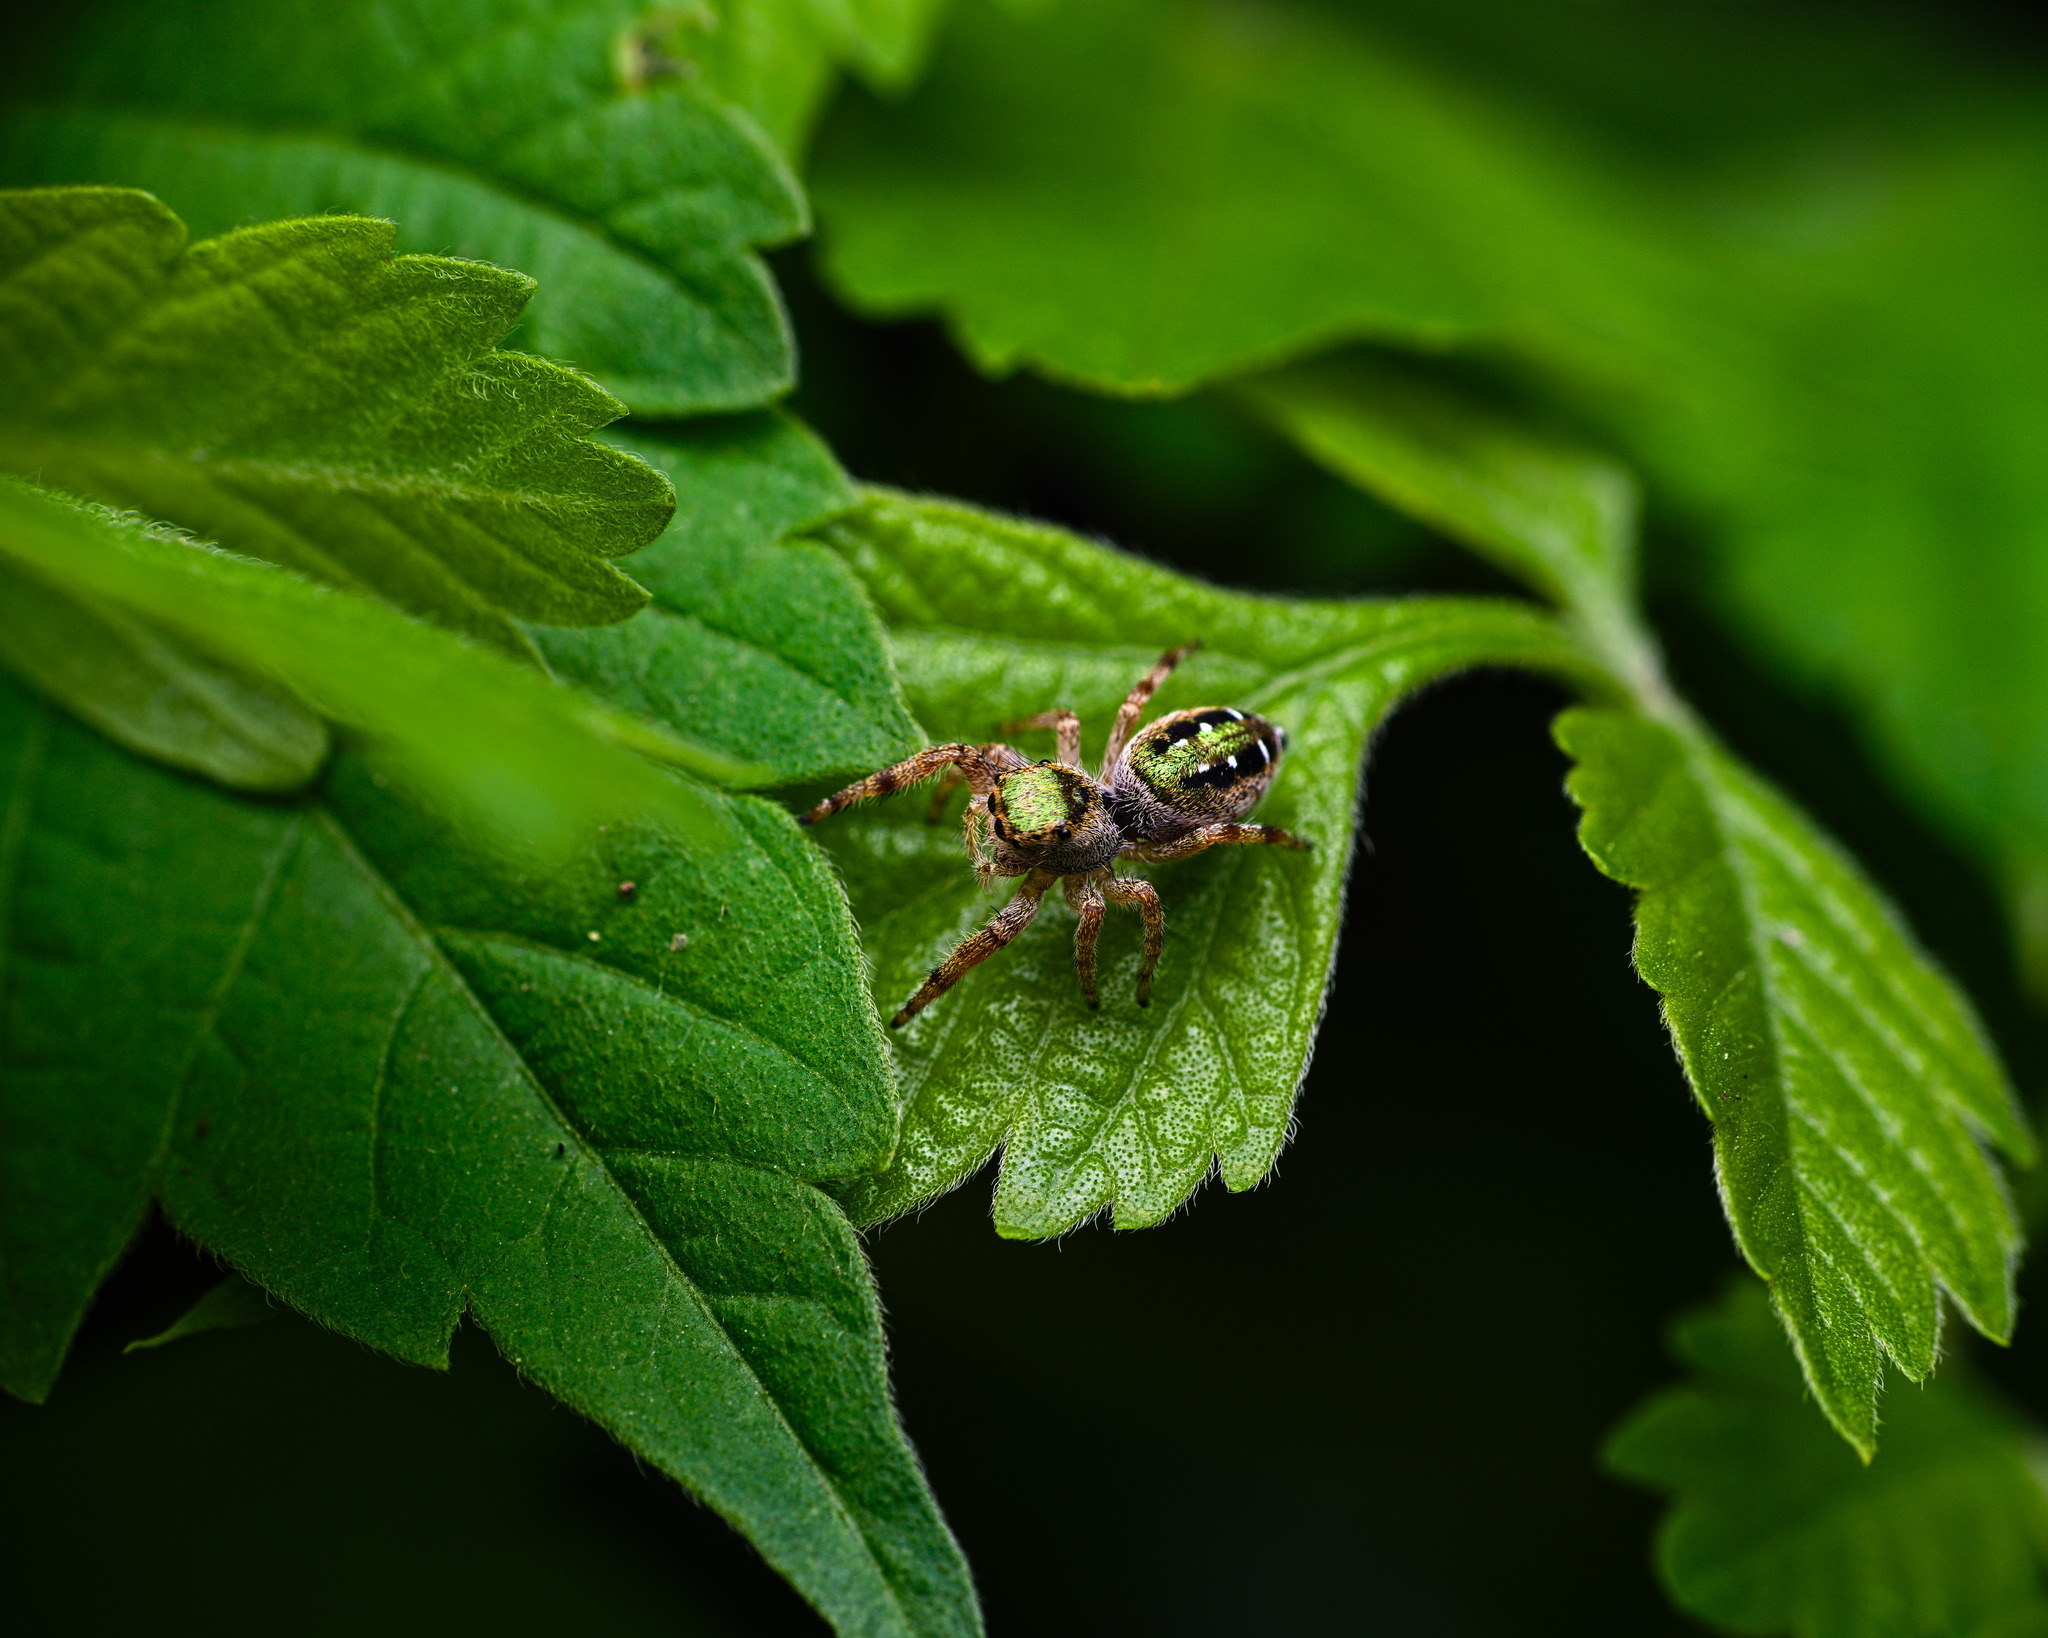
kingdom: Animalia
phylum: Arthropoda
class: Arachnida
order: Araneae
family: Salticidae
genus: Paraphidippus
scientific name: Paraphidippus aurantius
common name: Jumping spiders
